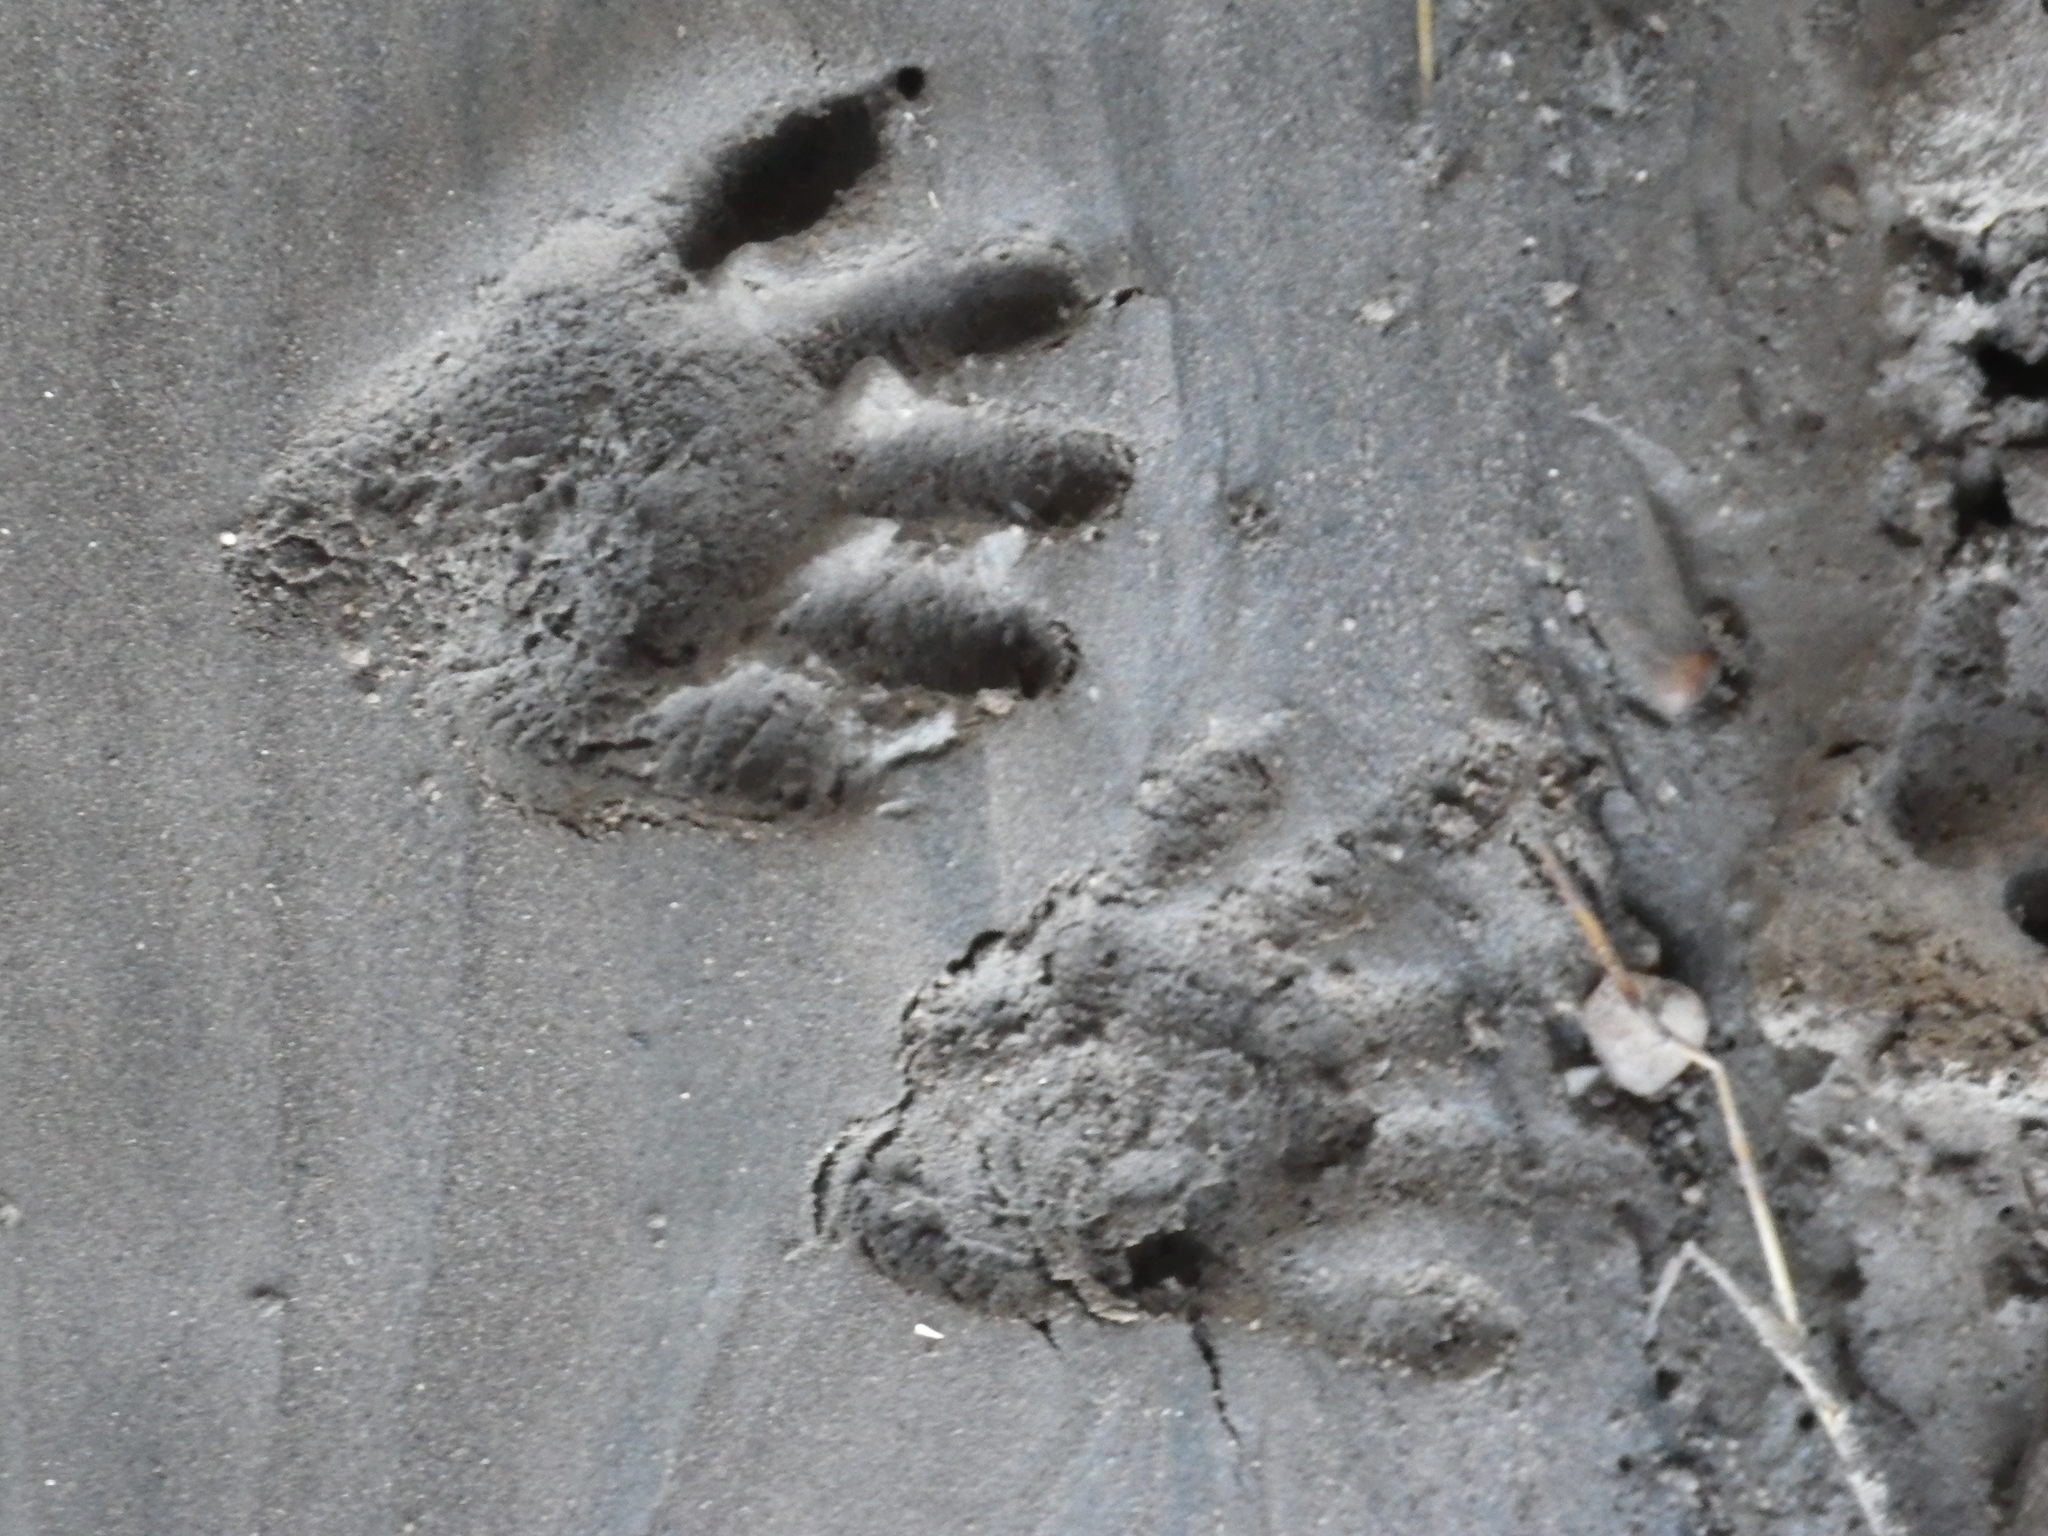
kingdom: Animalia
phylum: Chordata
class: Mammalia
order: Carnivora
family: Procyonidae
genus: Procyon
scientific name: Procyon lotor
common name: Raccoon
